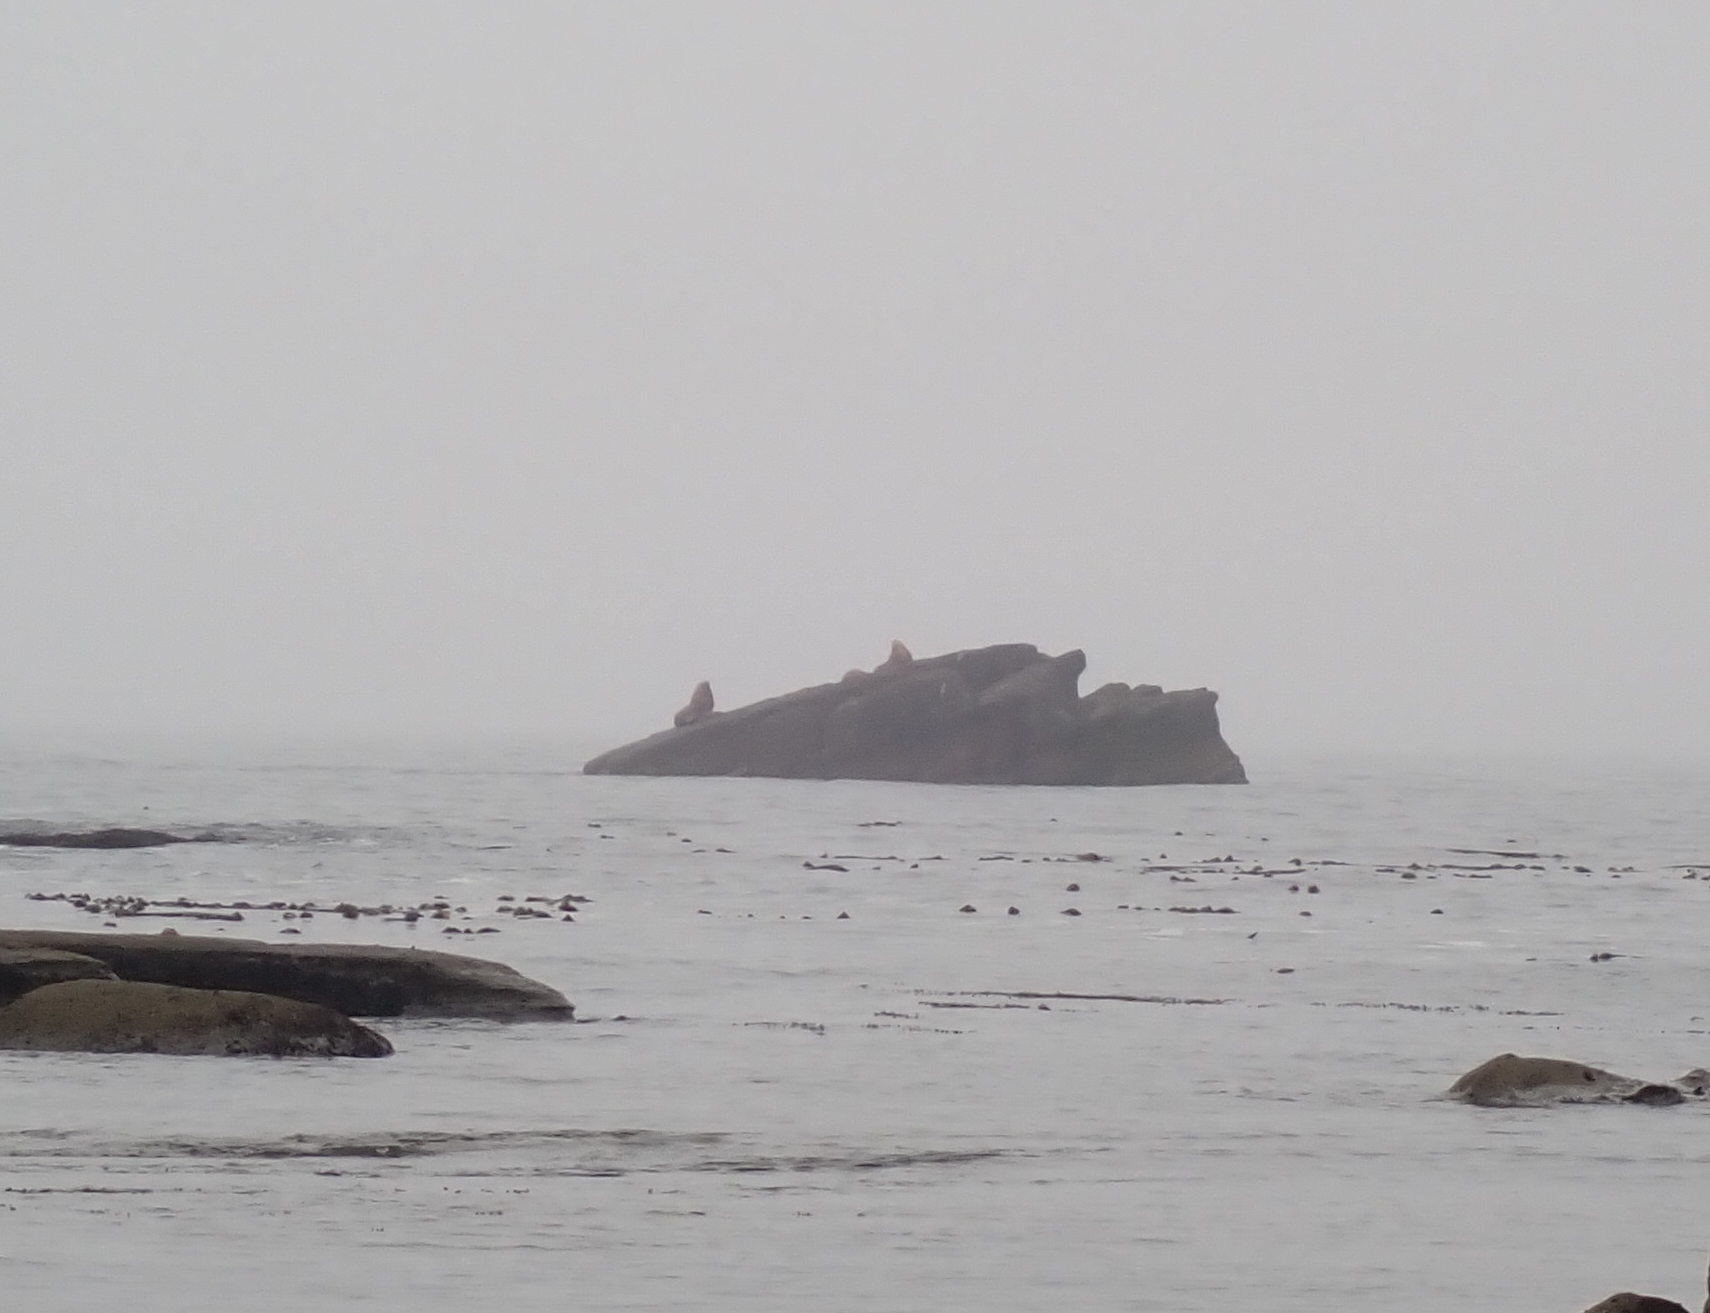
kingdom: Animalia
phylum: Chordata
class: Mammalia
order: Carnivora
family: Otariidae
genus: Eumetopias
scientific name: Eumetopias jubatus
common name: Steller sea lion
